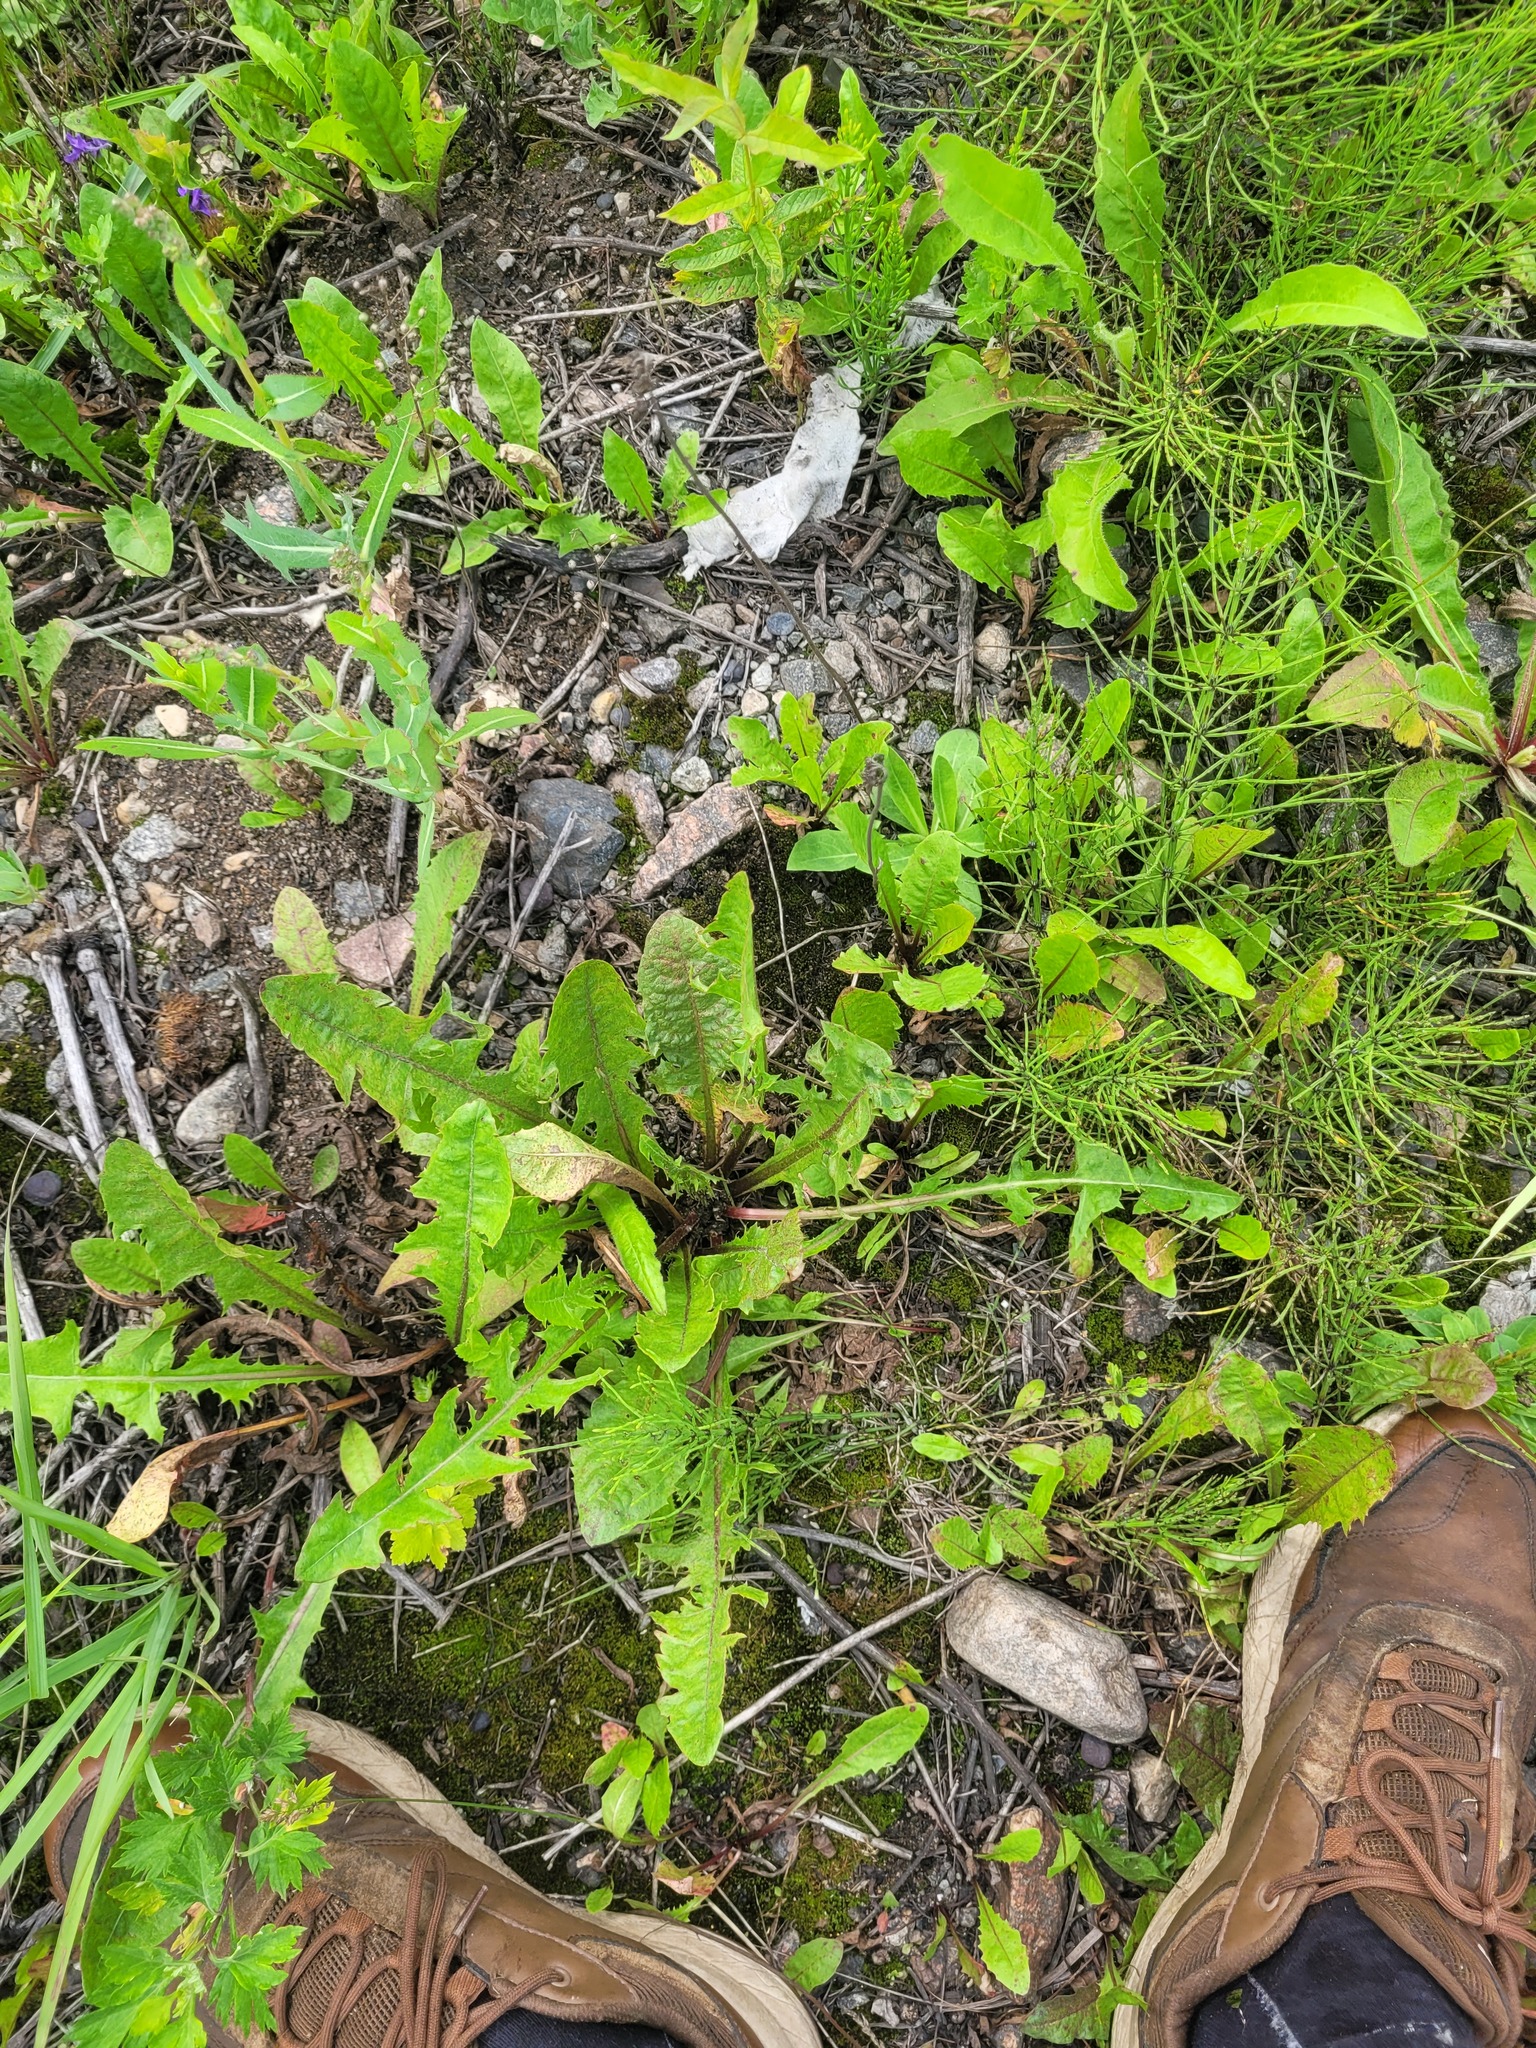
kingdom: Plantae
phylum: Tracheophyta
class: Magnoliopsida
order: Asterales
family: Asteraceae
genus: Taraxacum
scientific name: Taraxacum officinale
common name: Common dandelion
